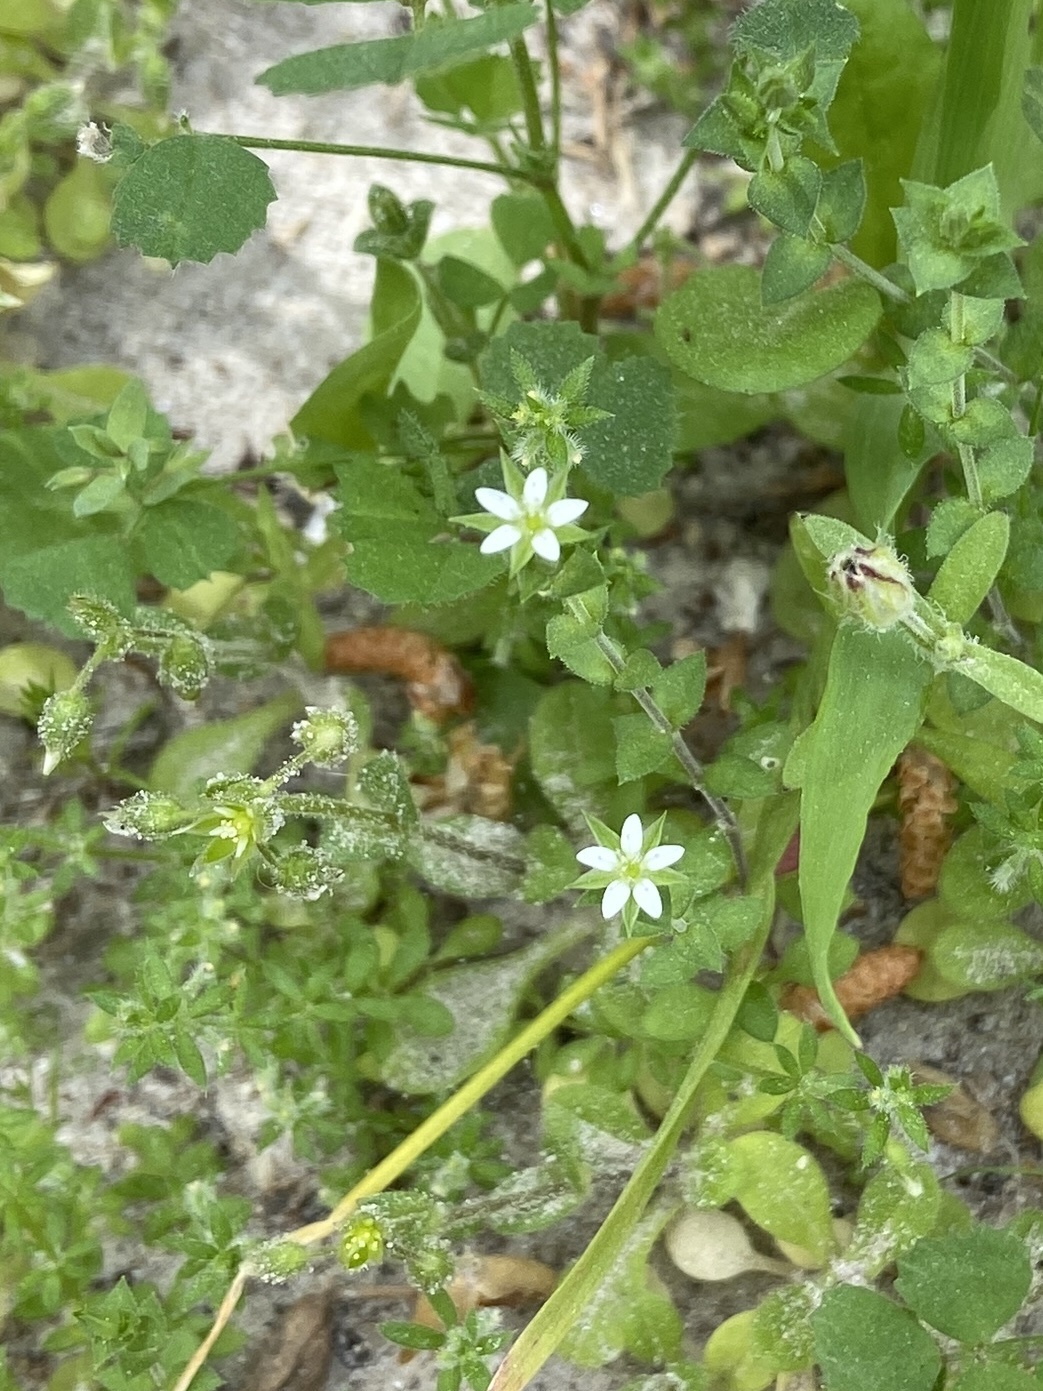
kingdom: Plantae
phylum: Tracheophyta
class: Magnoliopsida
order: Caryophyllales
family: Caryophyllaceae
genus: Arenaria
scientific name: Arenaria serpyllifolia
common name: Thyme-leaved sandwort
